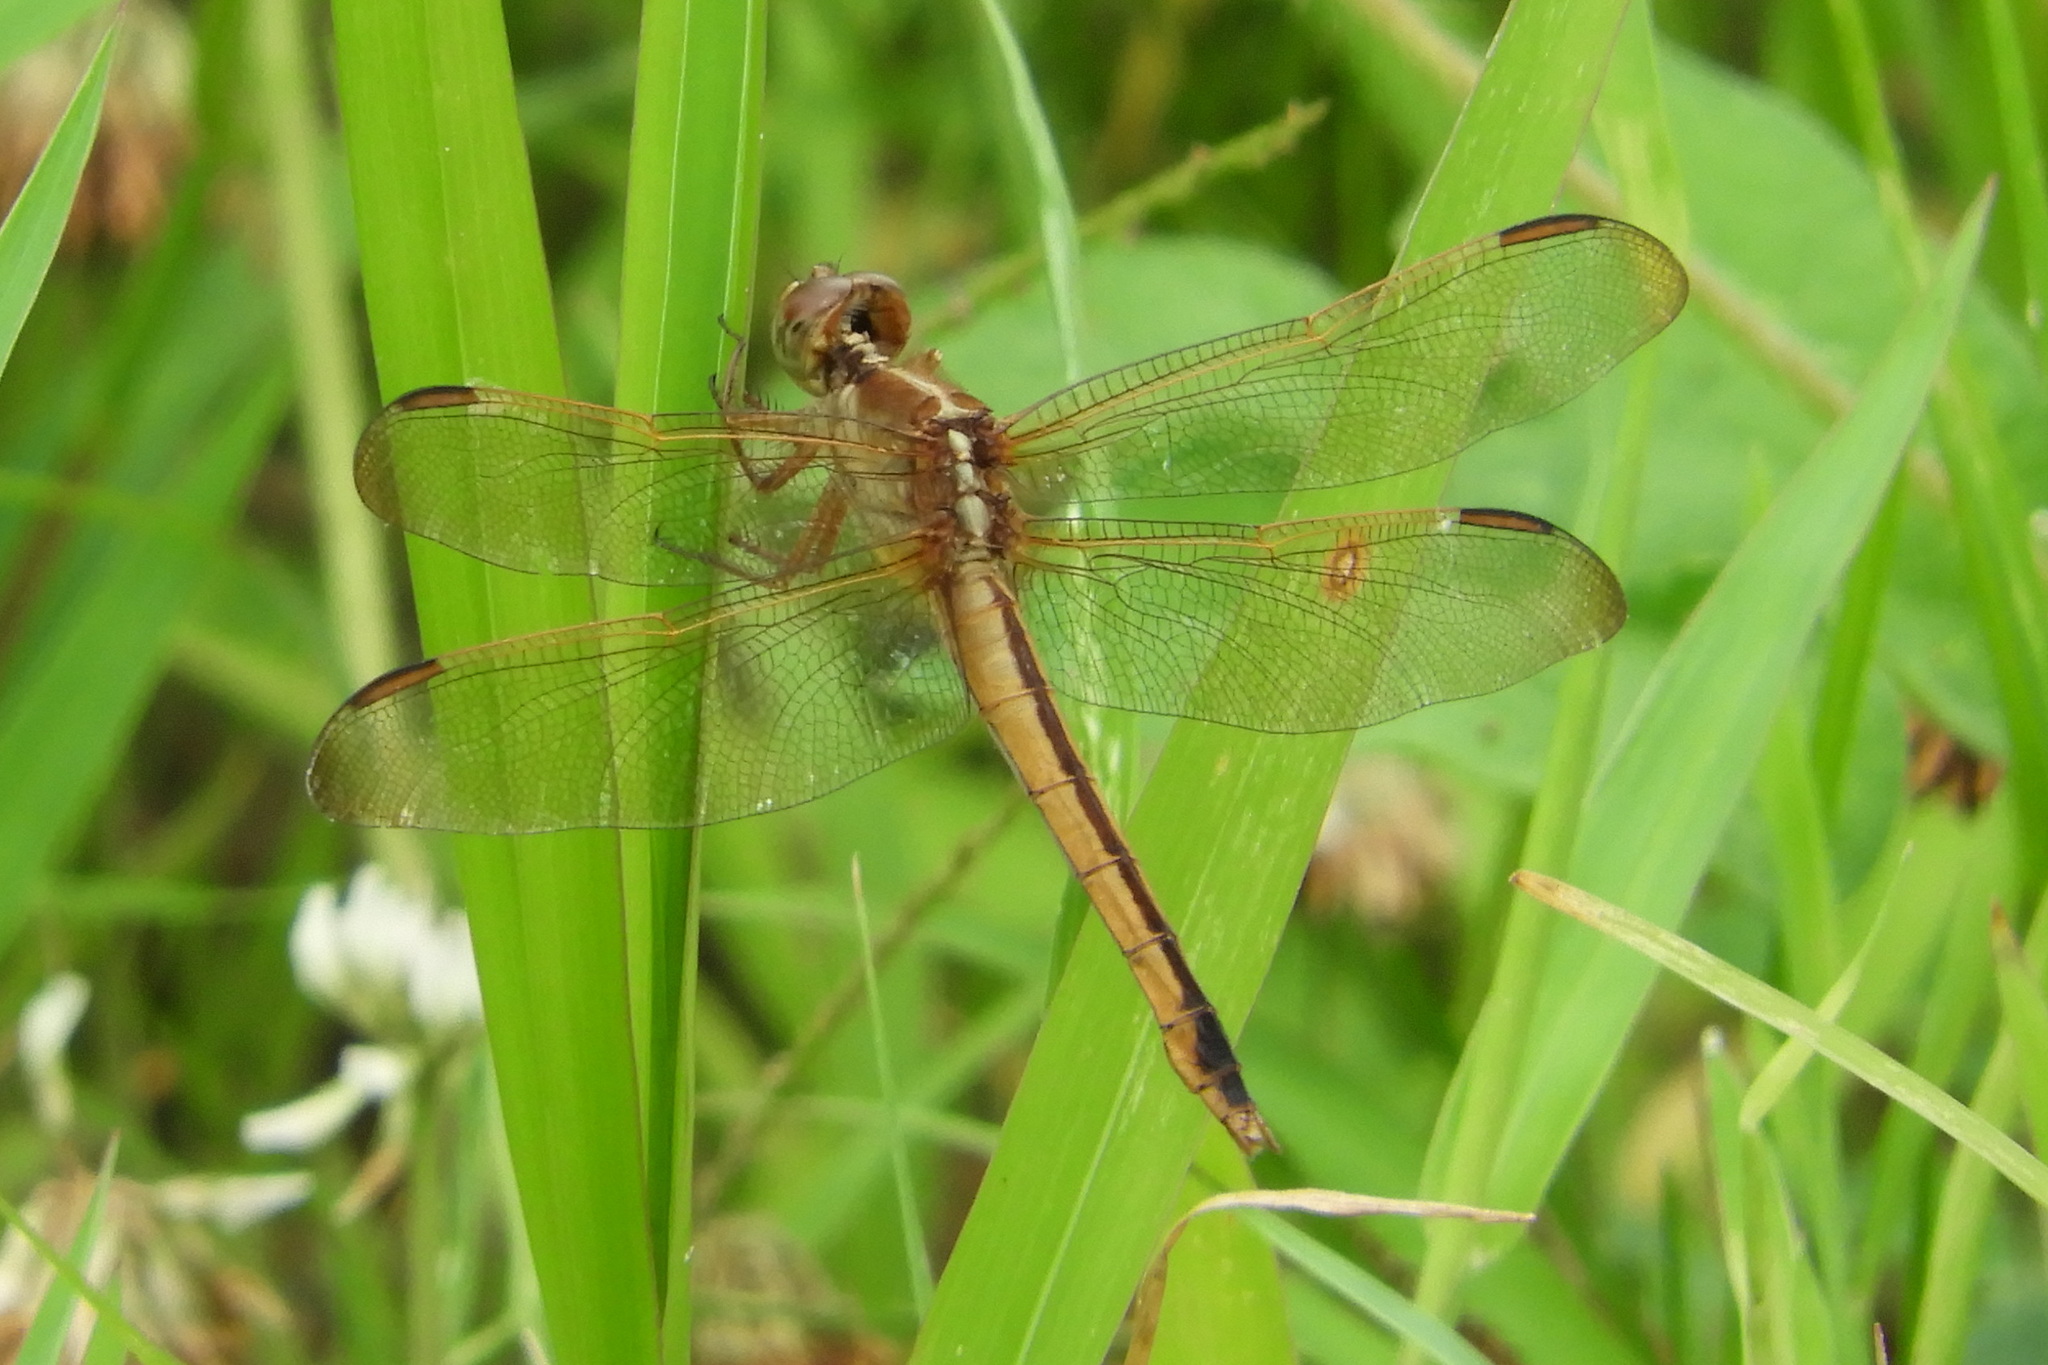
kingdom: Animalia
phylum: Arthropoda
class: Insecta
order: Odonata
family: Libellulidae
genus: Libellula
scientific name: Libellula needhami
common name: Needham's skimmer
